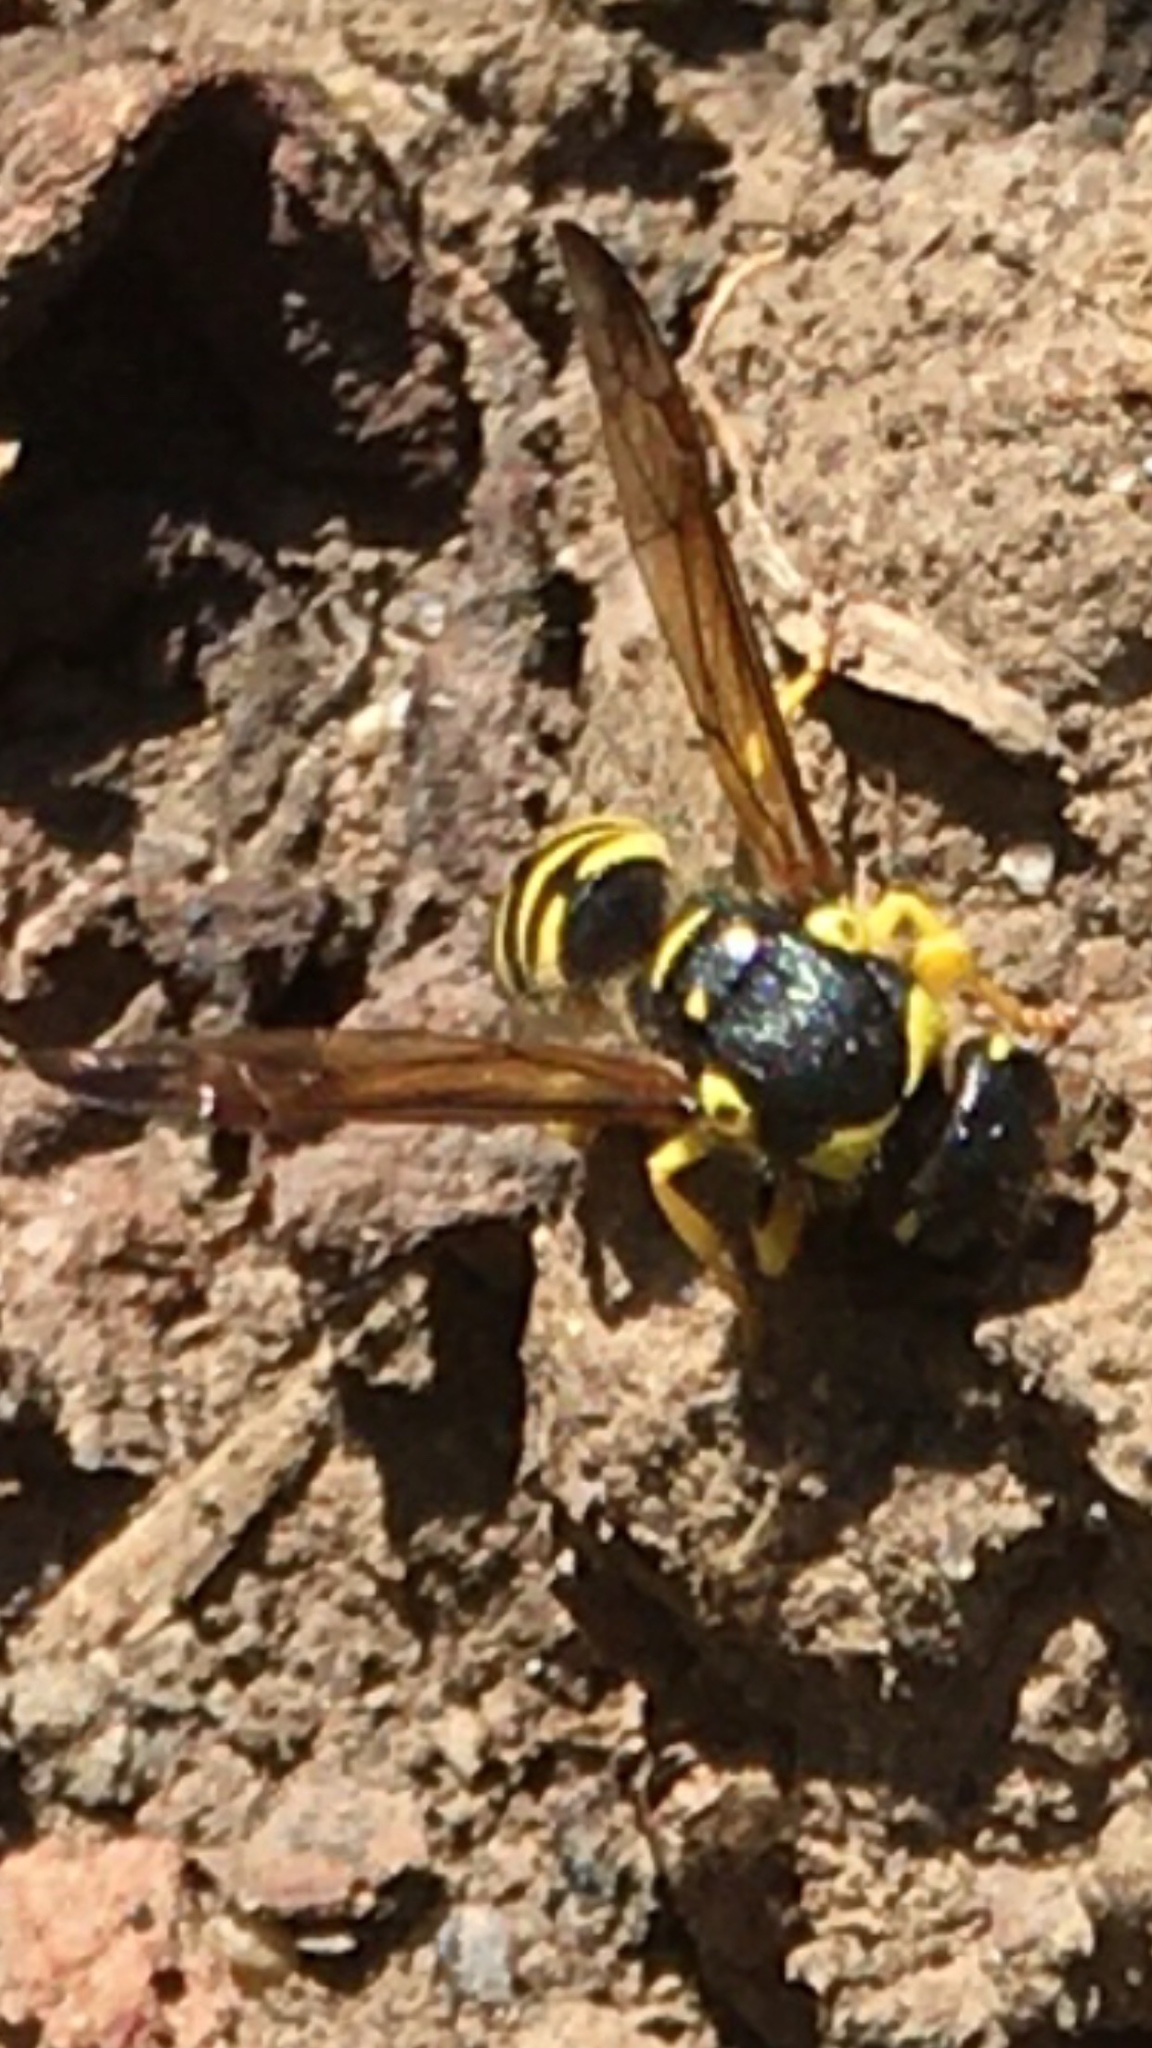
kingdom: Animalia
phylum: Arthropoda
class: Insecta
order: Hymenoptera
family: Vespidae
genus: Ancistrocerus
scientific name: Ancistrocerus adiabatus
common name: Bramble mason wasp
